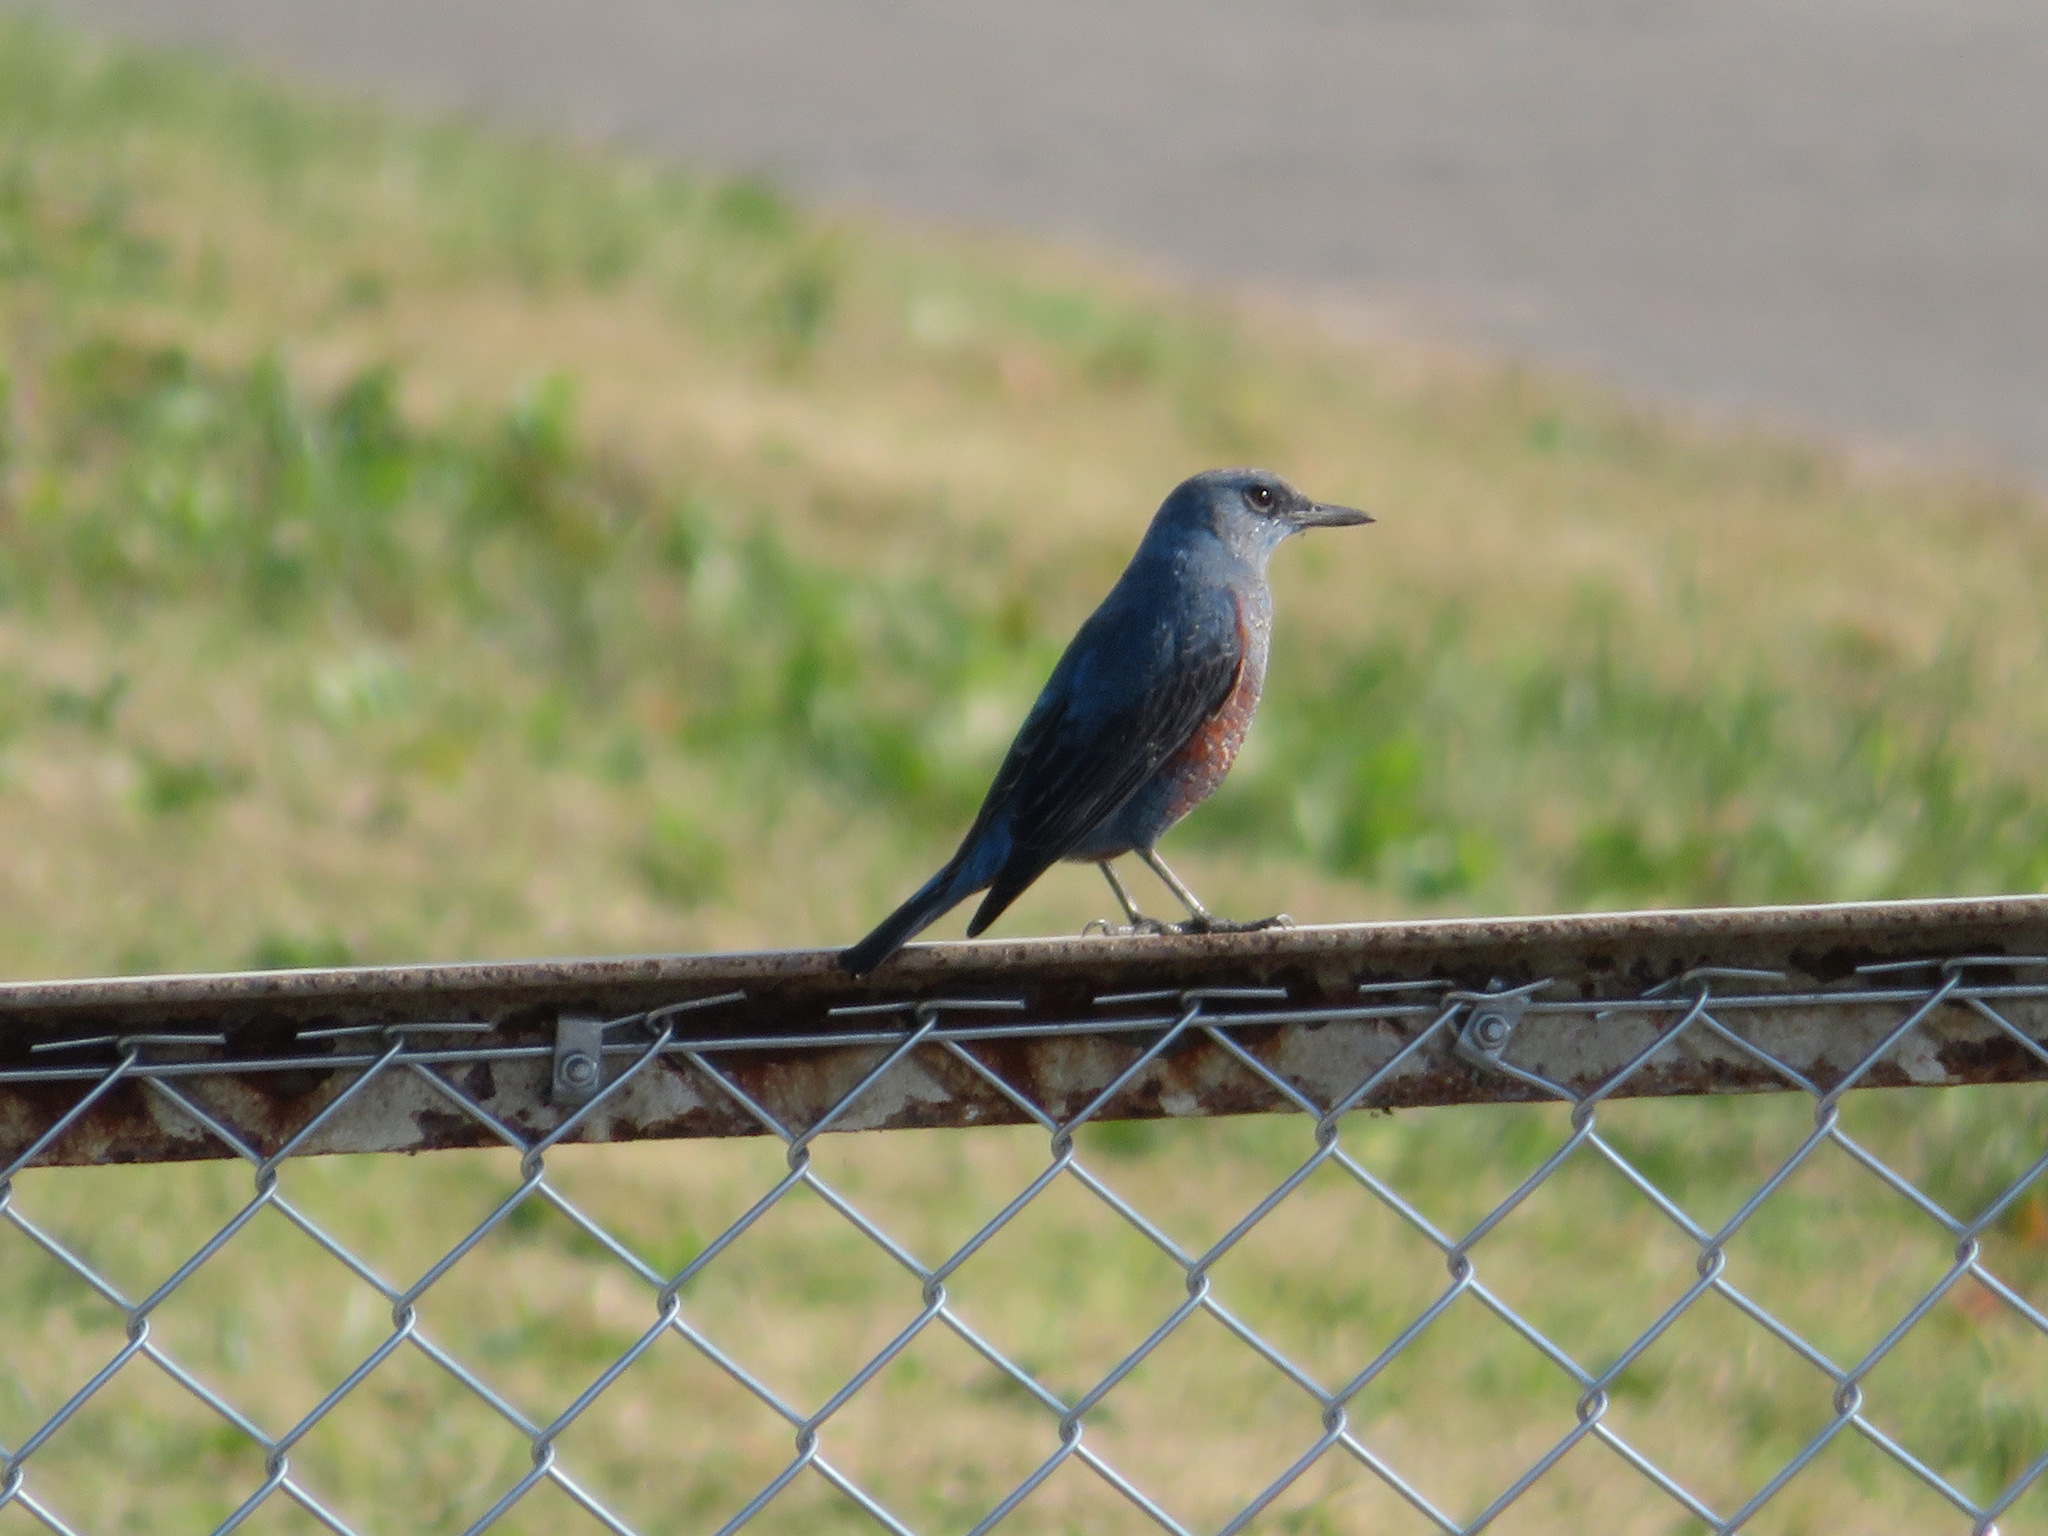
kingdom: Animalia
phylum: Chordata
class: Aves
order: Passeriformes
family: Muscicapidae
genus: Monticola
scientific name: Monticola solitarius
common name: Blue rock thrush
